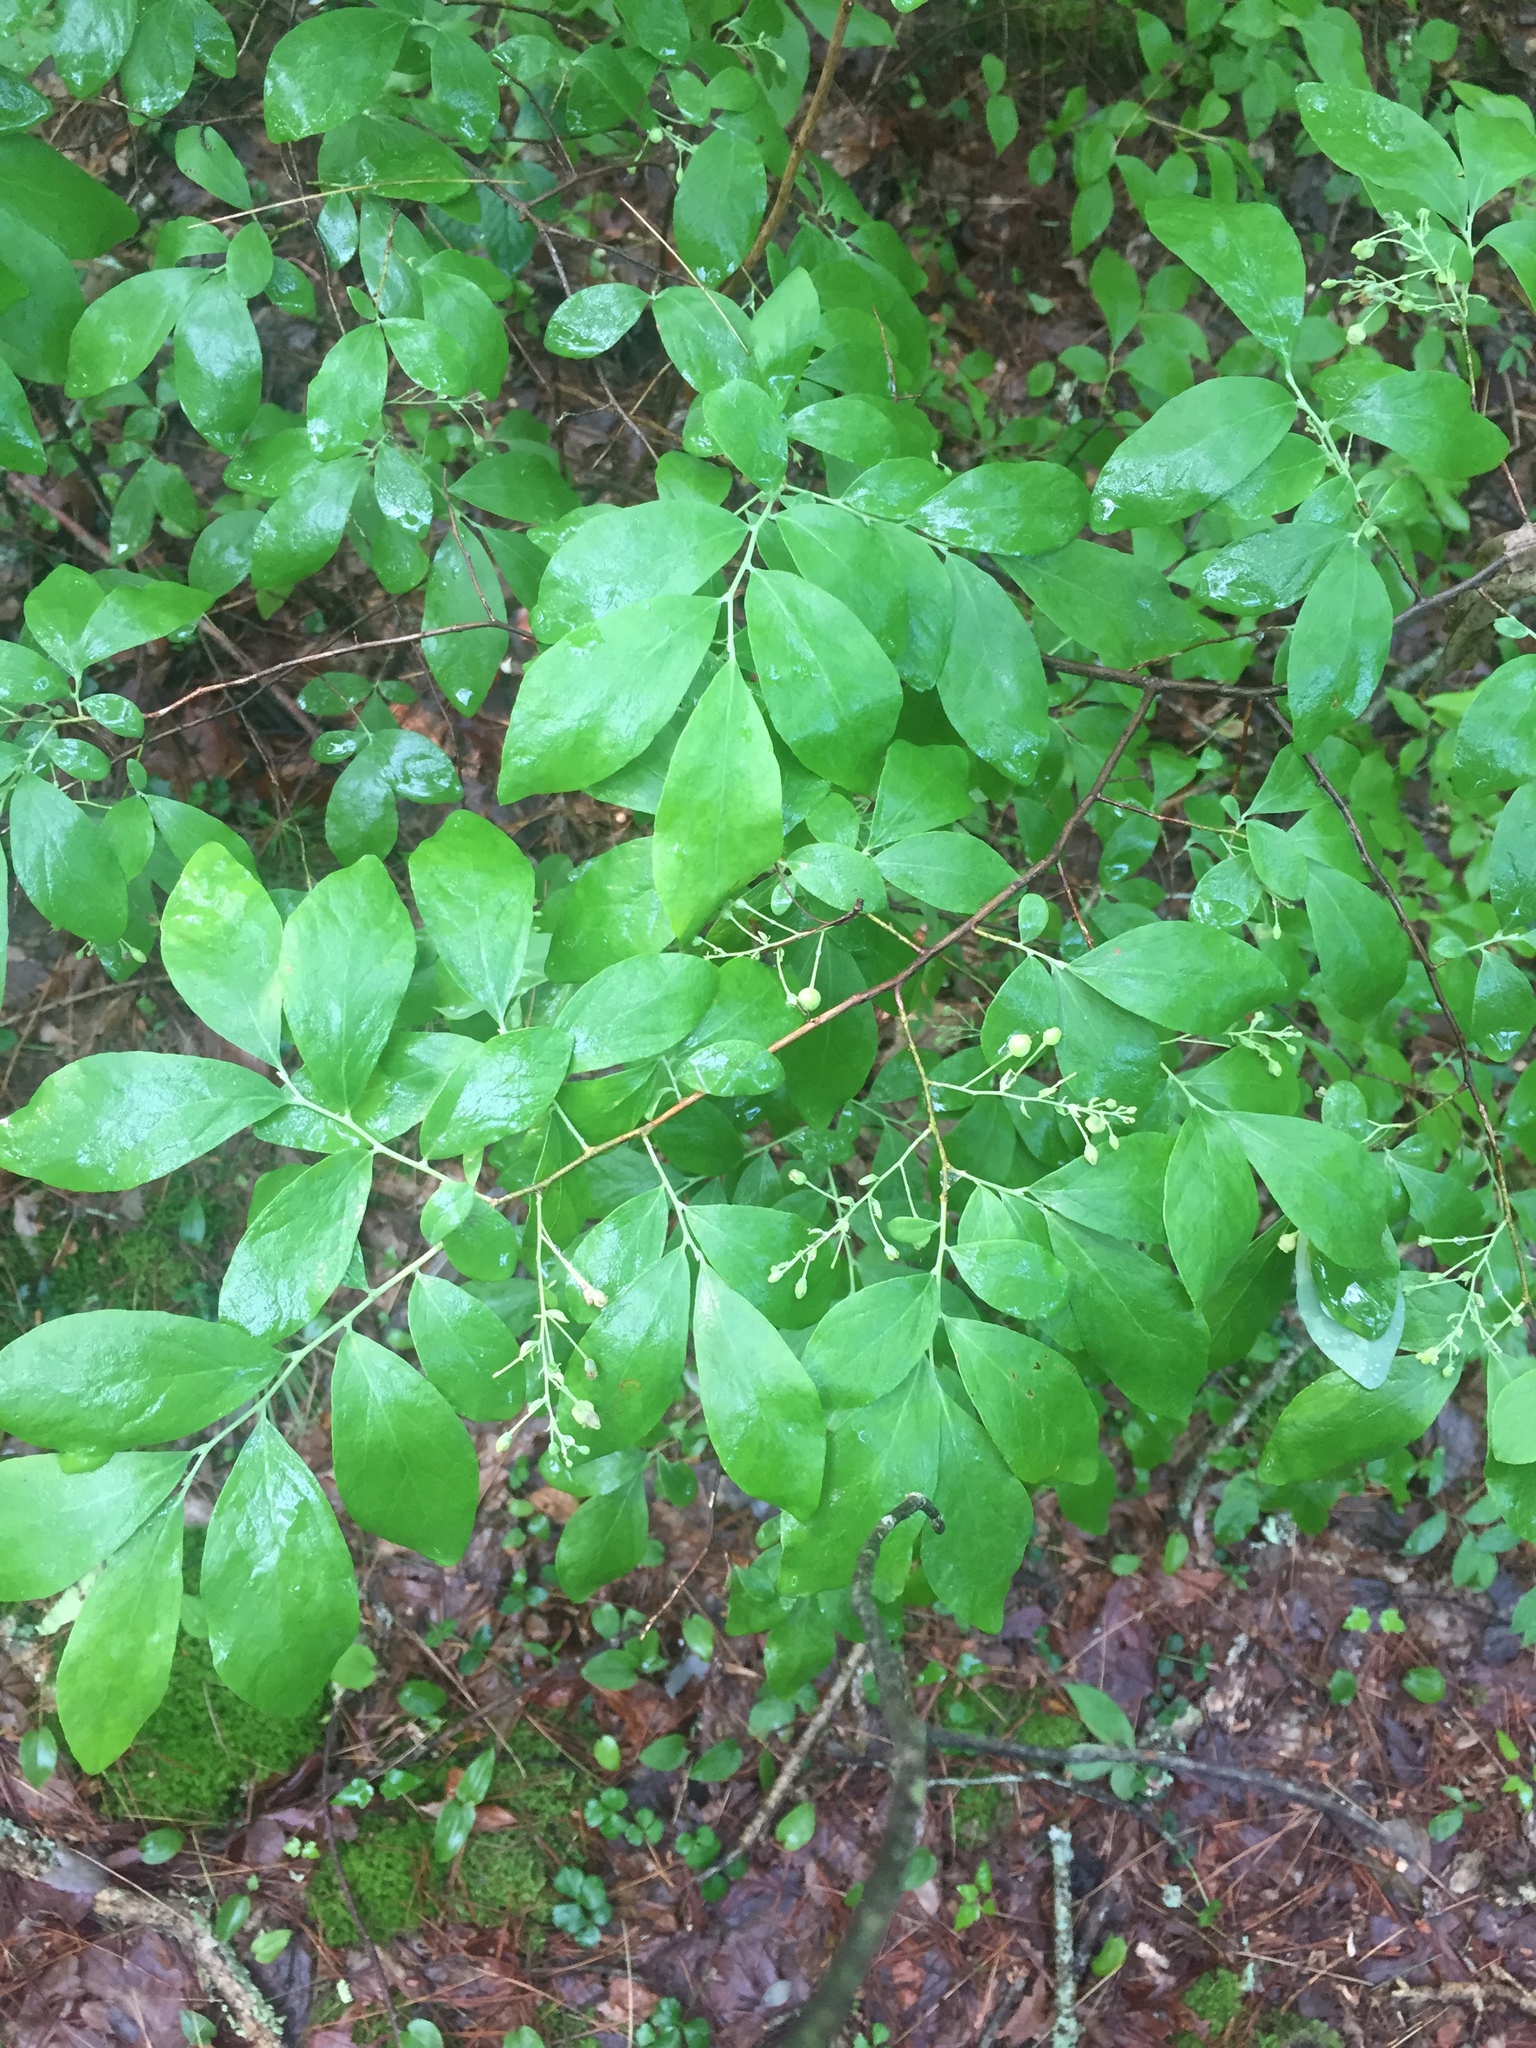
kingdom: Plantae
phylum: Tracheophyta
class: Magnoliopsida
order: Ericales
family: Ericaceae
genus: Vaccinium
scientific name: Vaccinium pallidum
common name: Blue ridge blueberry
